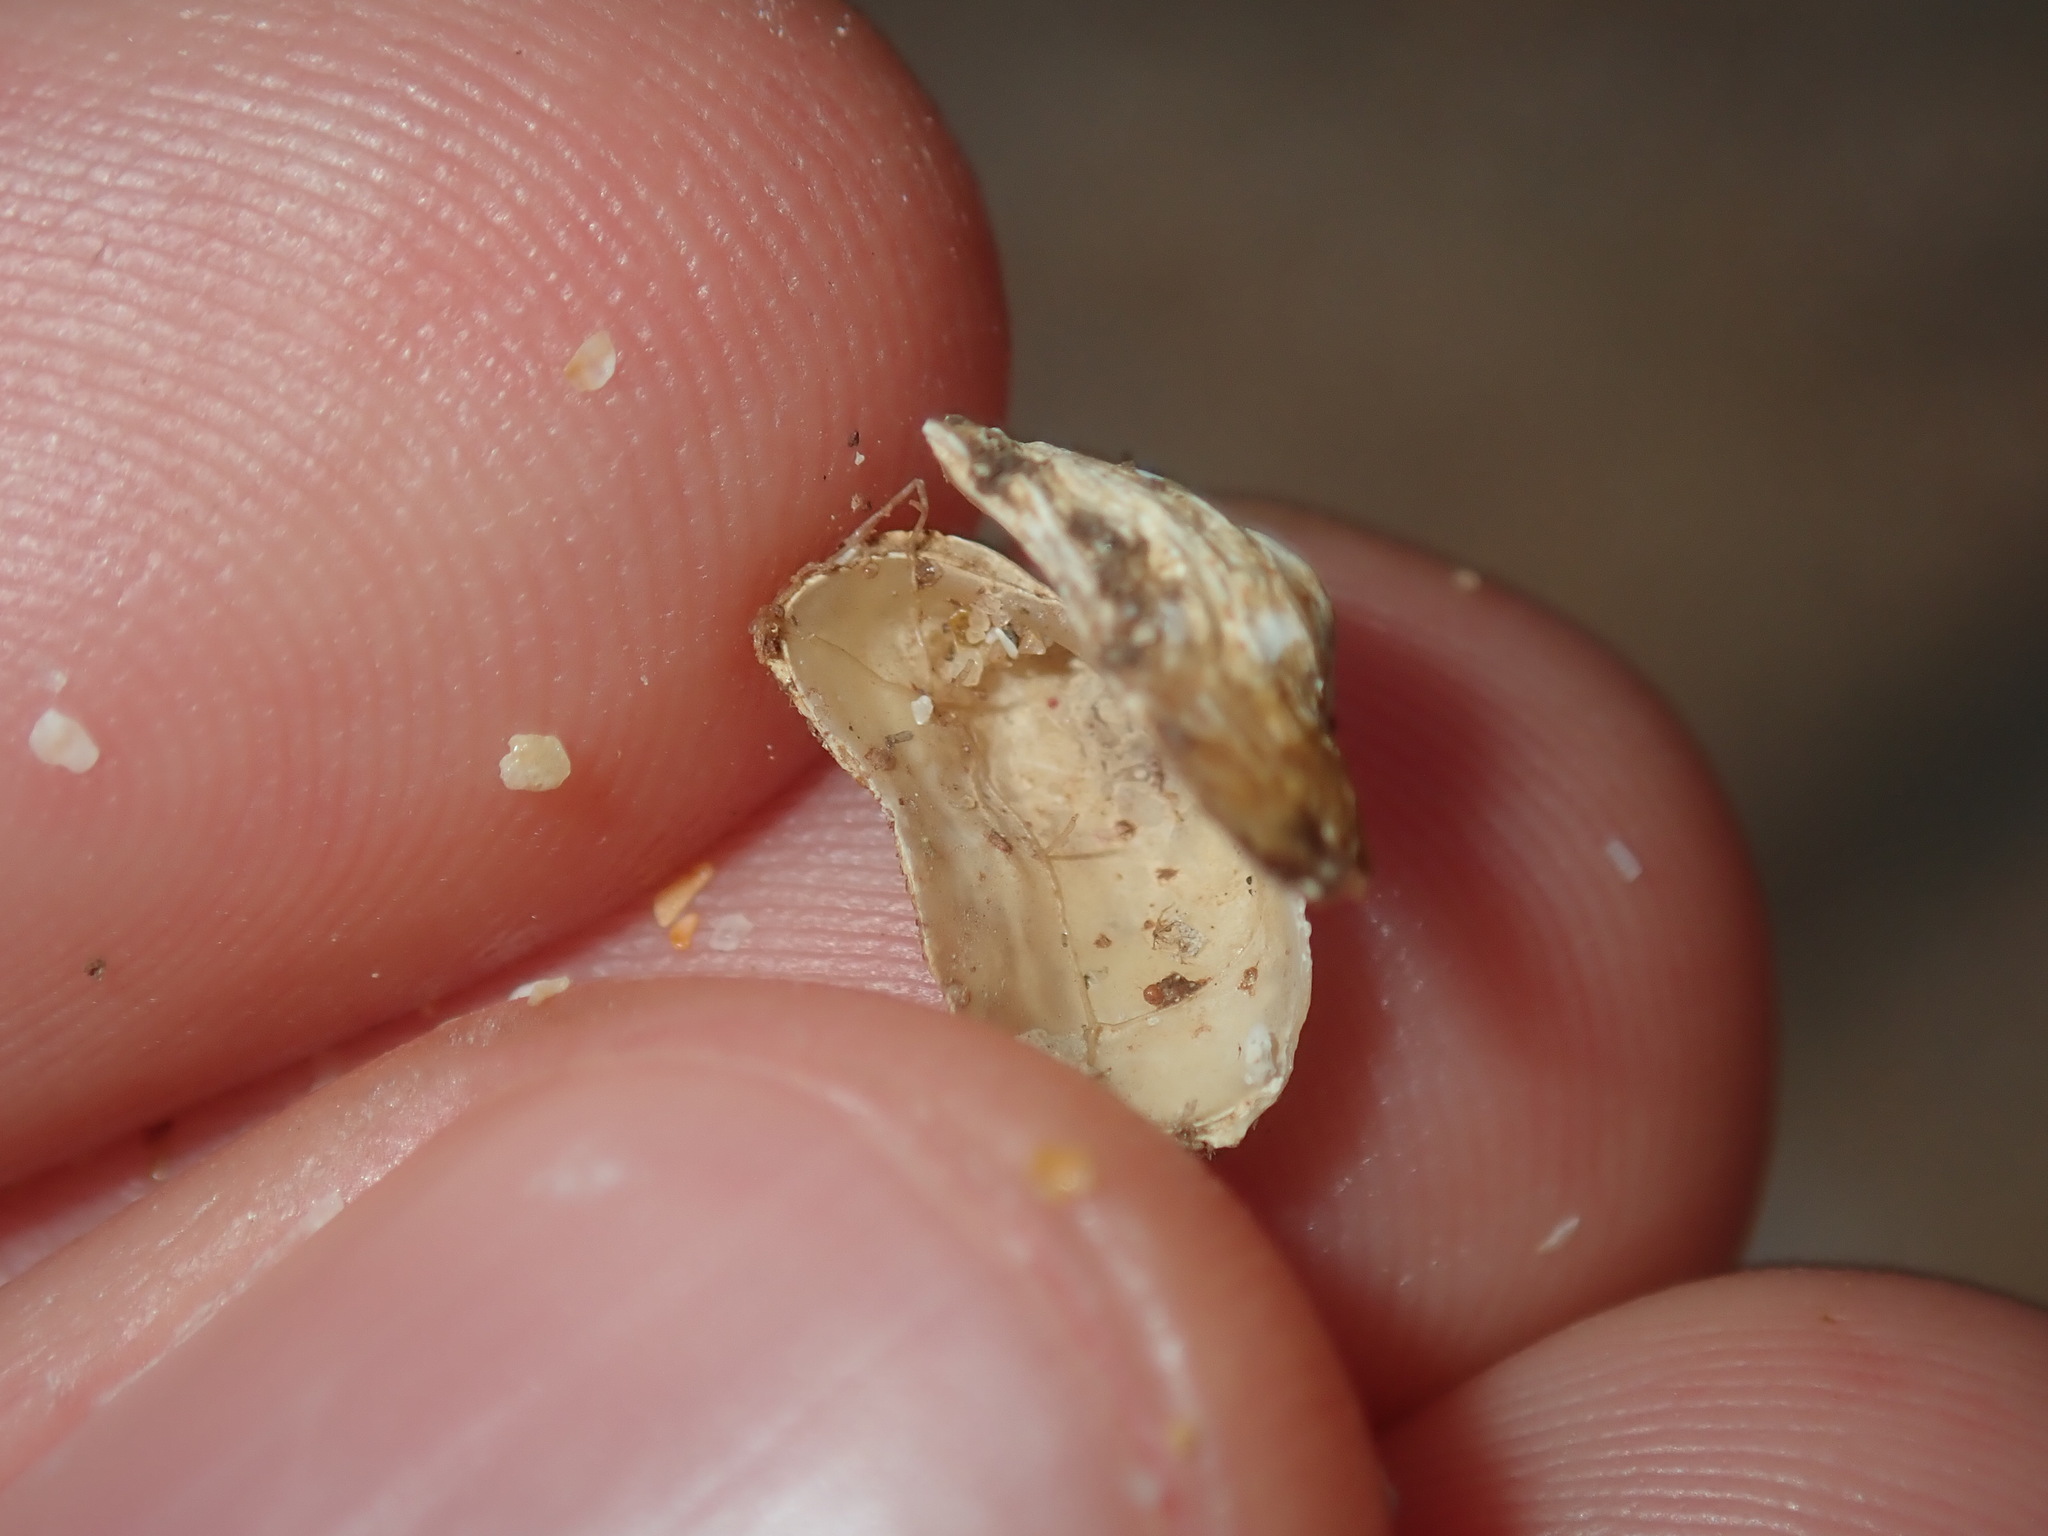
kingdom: Animalia
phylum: Mollusca
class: Bivalvia
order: Adapedonta
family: Hiatellidae
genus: Hiatella
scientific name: Hiatella australis
